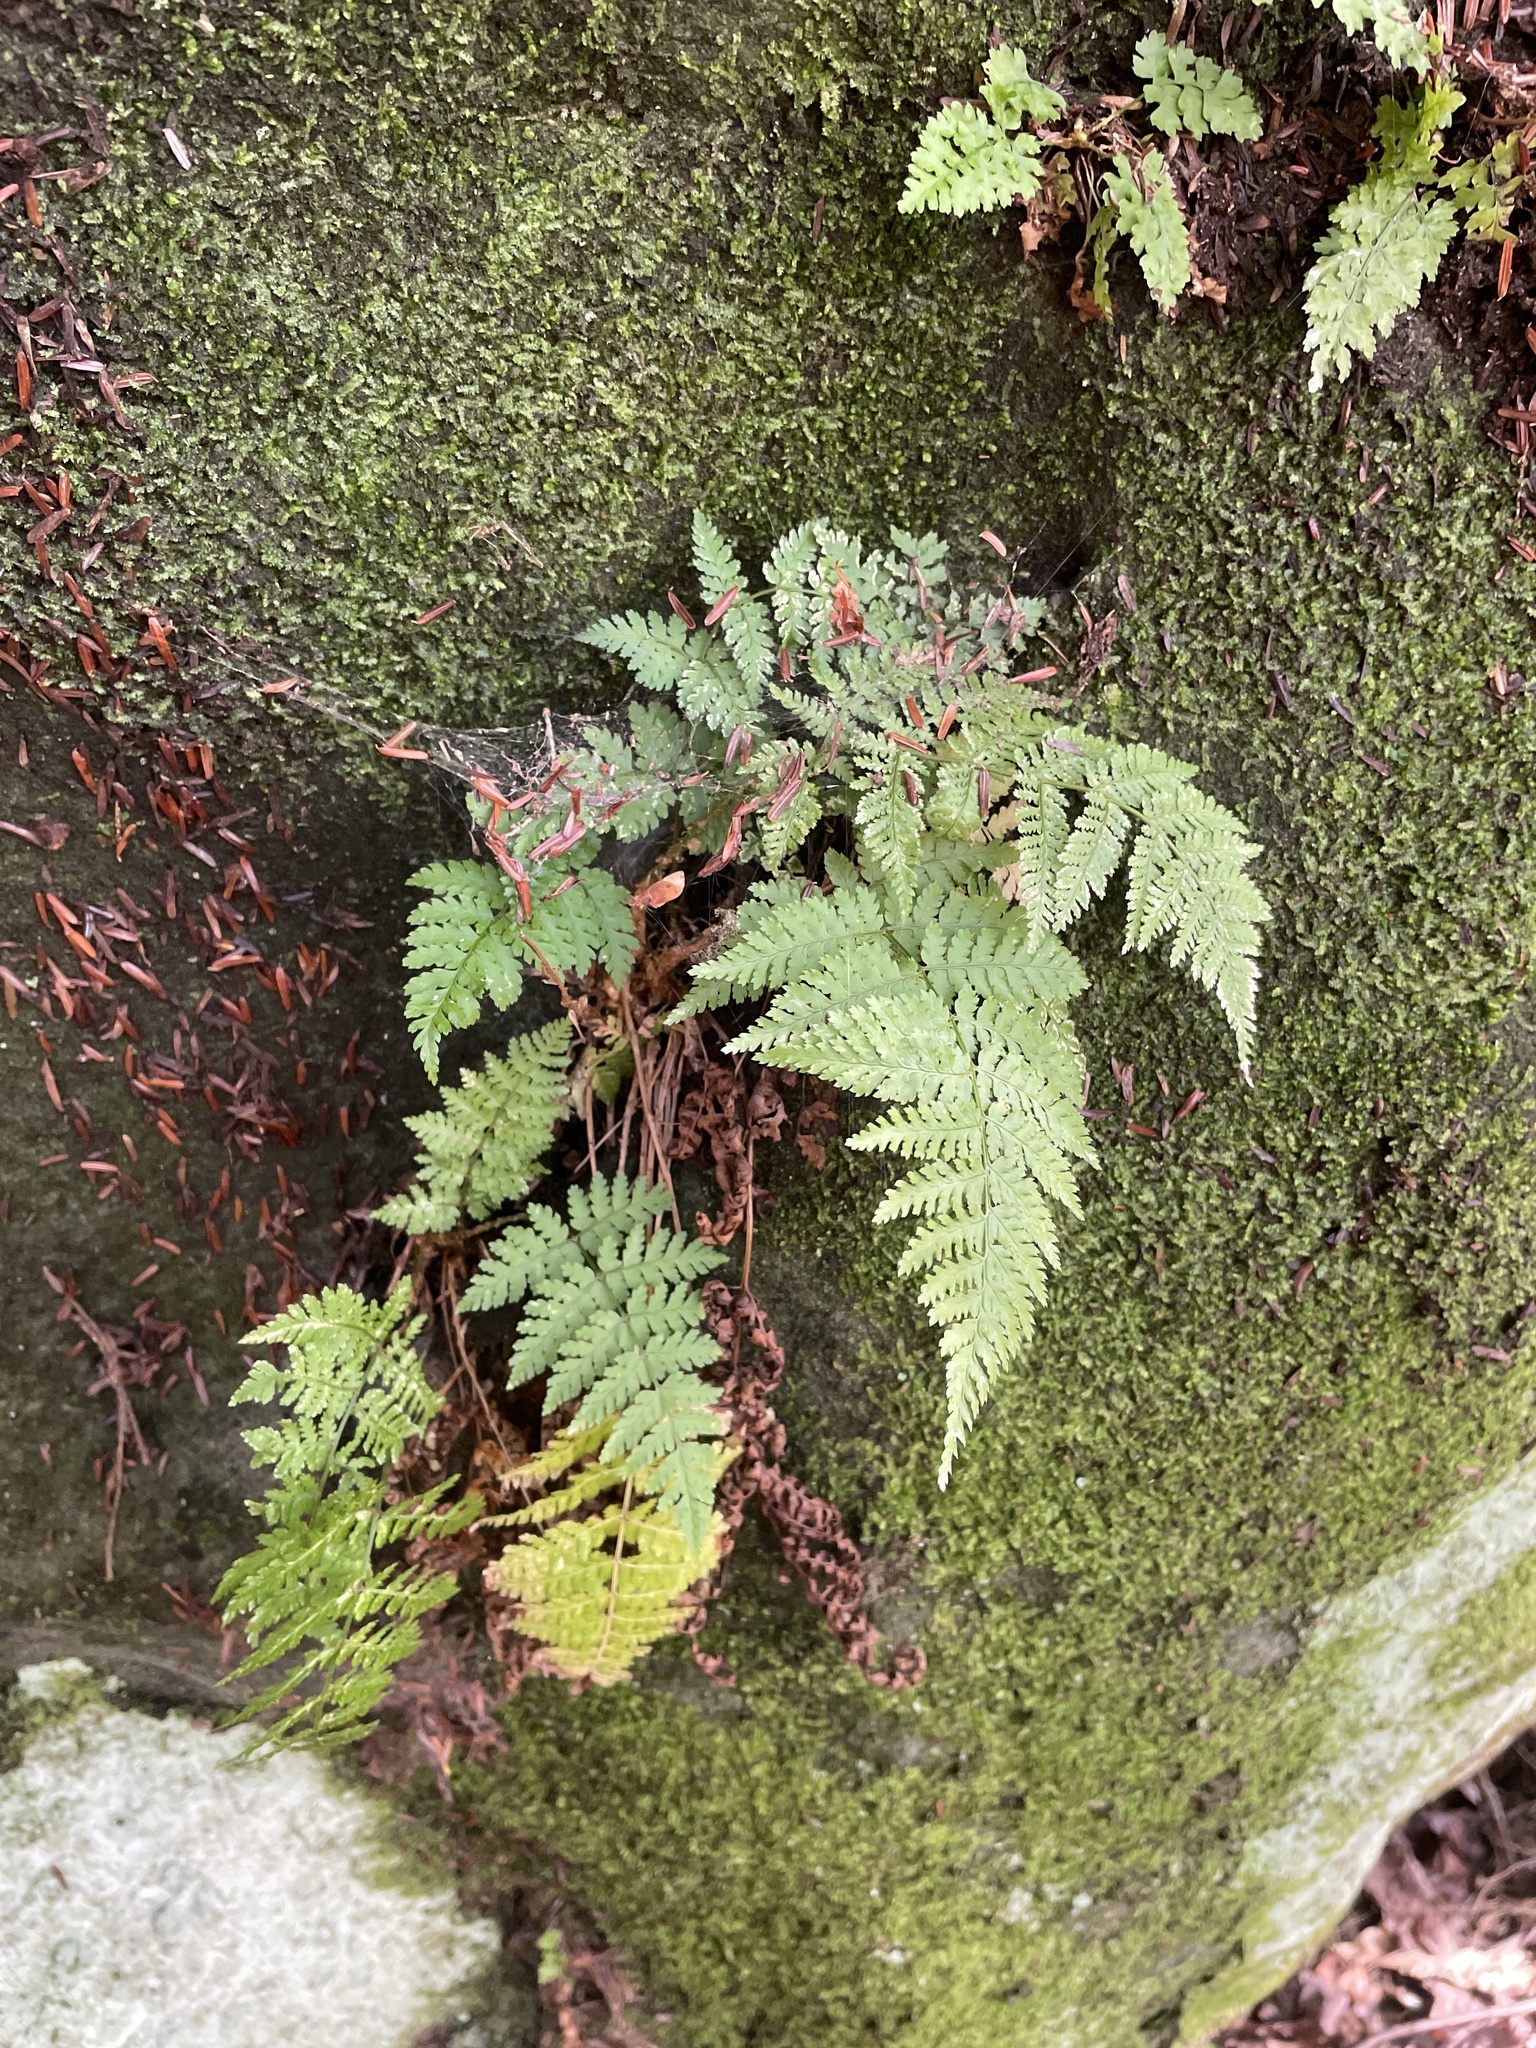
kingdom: Plantae
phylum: Tracheophyta
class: Polypodiopsida
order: Polypodiales
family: Dryopteridaceae
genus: Dryopteris
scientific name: Dryopteris intermedia
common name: Evergreen wood fern
